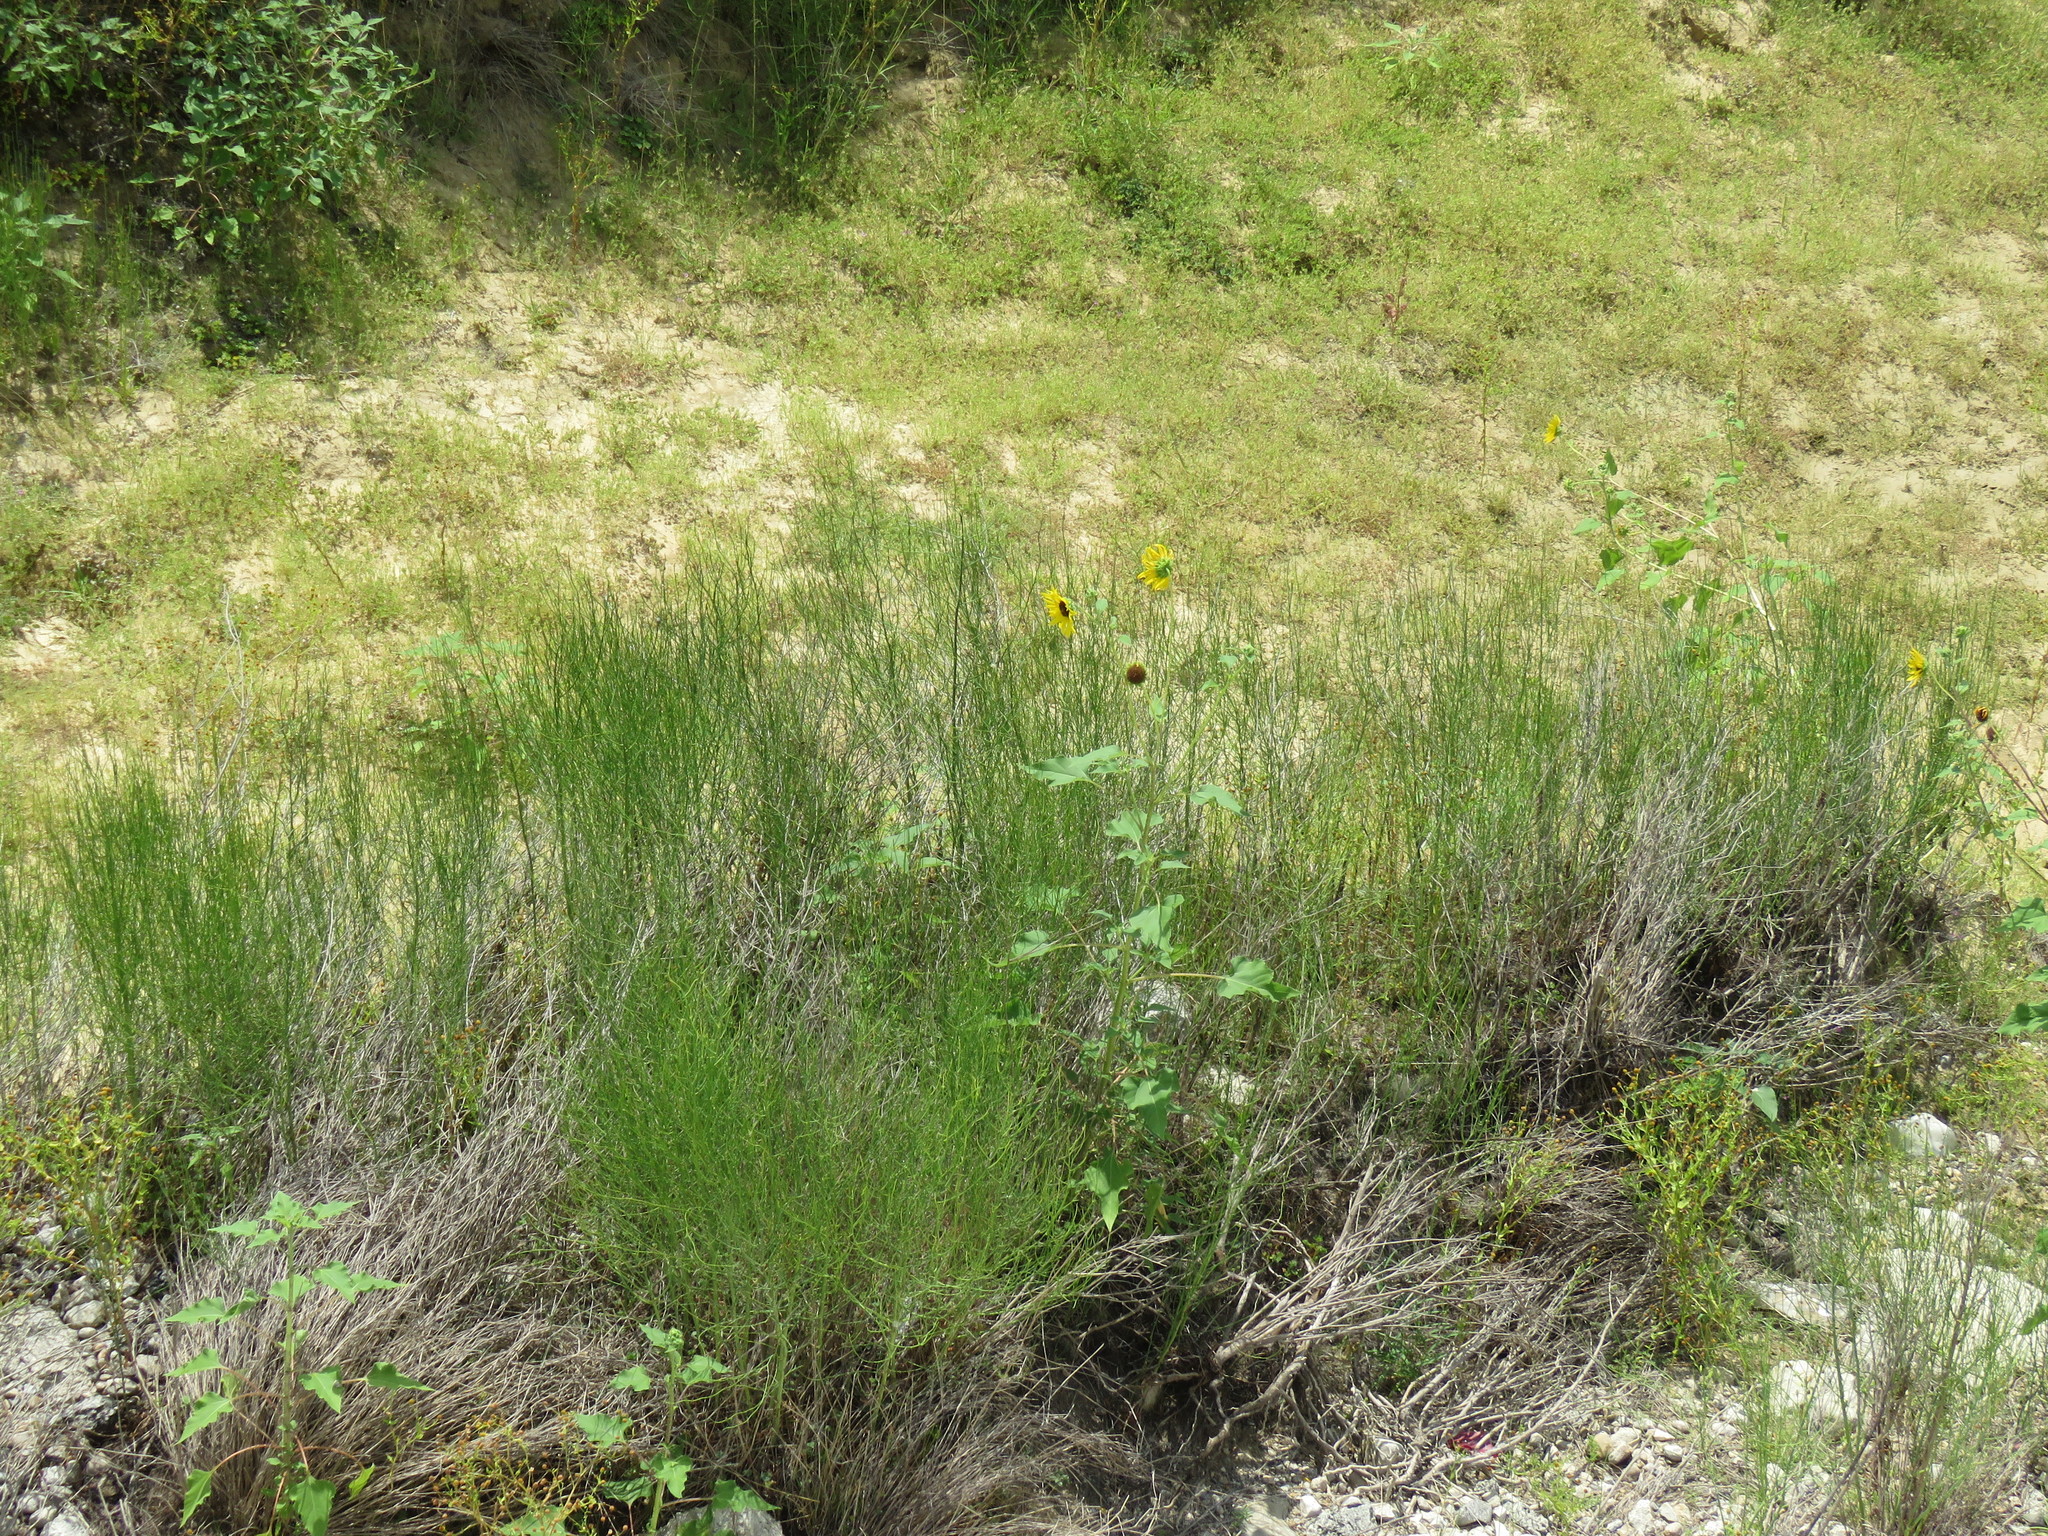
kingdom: Plantae
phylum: Tracheophyta
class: Magnoliopsida
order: Asterales
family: Asteraceae
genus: Chloracantha
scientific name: Chloracantha spinosa
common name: Mexican devilweed
